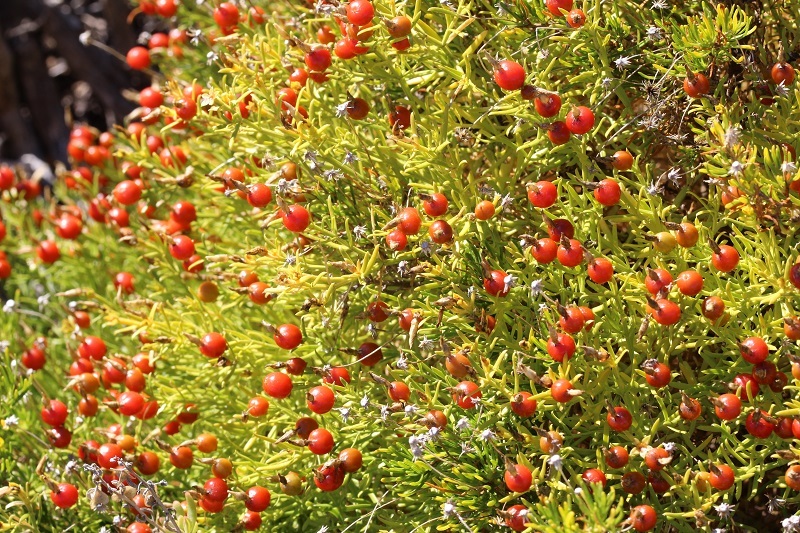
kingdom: Plantae
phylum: Tracheophyta
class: Magnoliopsida
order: Gentianales
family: Gentianaceae
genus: Chironia
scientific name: Chironia baccifera
